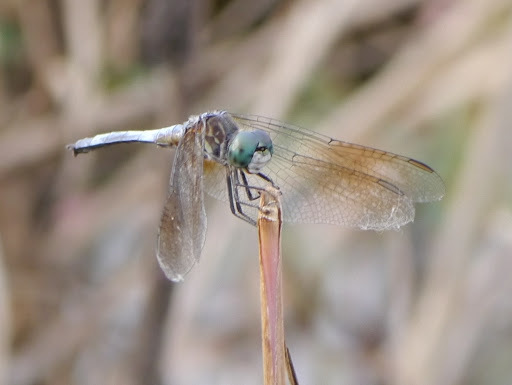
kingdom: Animalia
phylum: Arthropoda
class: Insecta
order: Odonata
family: Libellulidae
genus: Pachydiplax
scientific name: Pachydiplax longipennis
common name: Blue dasher
